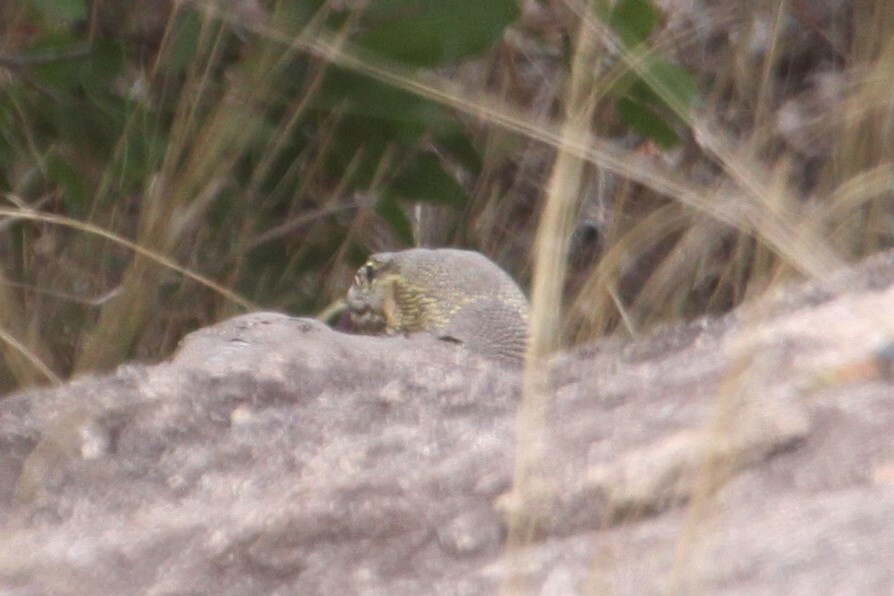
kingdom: Animalia
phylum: Chordata
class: Squamata
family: Varanidae
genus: Varanus
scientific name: Varanus niloticus
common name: Nile monitor
